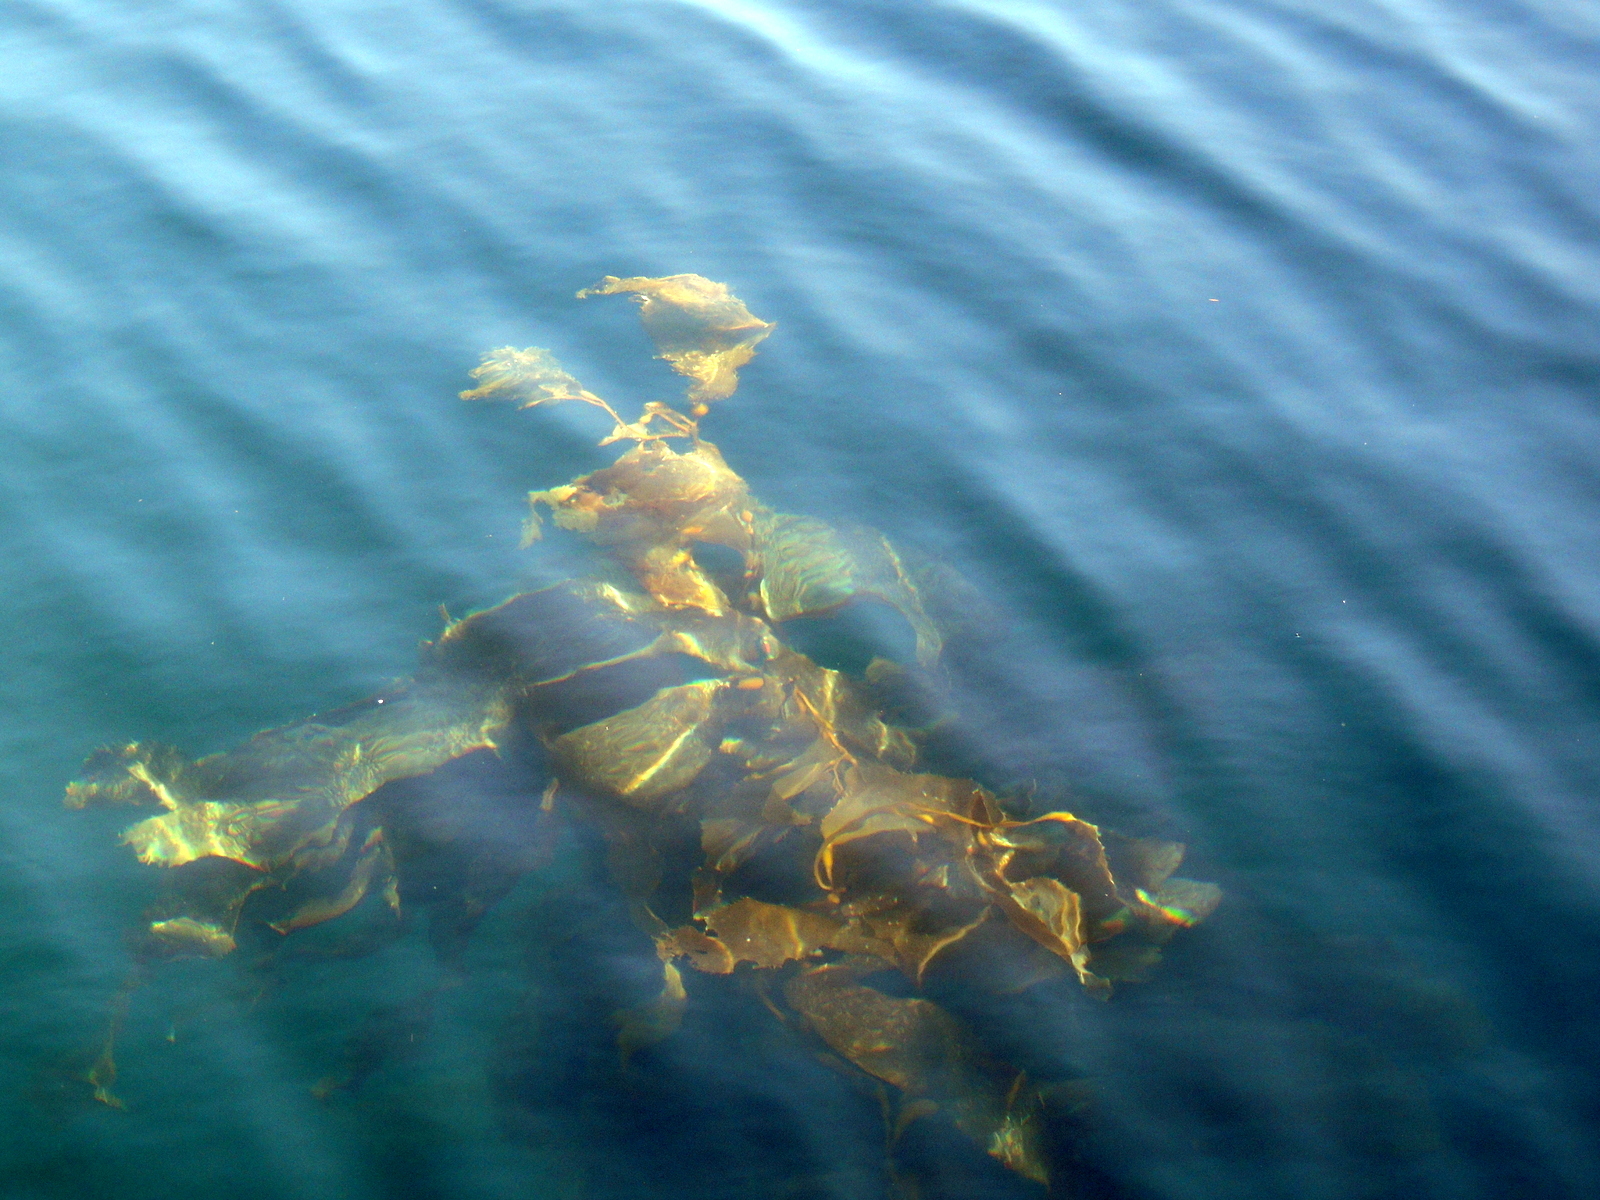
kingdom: Chromista
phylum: Ochrophyta
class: Phaeophyceae
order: Laminariales
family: Laminariaceae
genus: Macrocystis
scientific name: Macrocystis pyrifera
